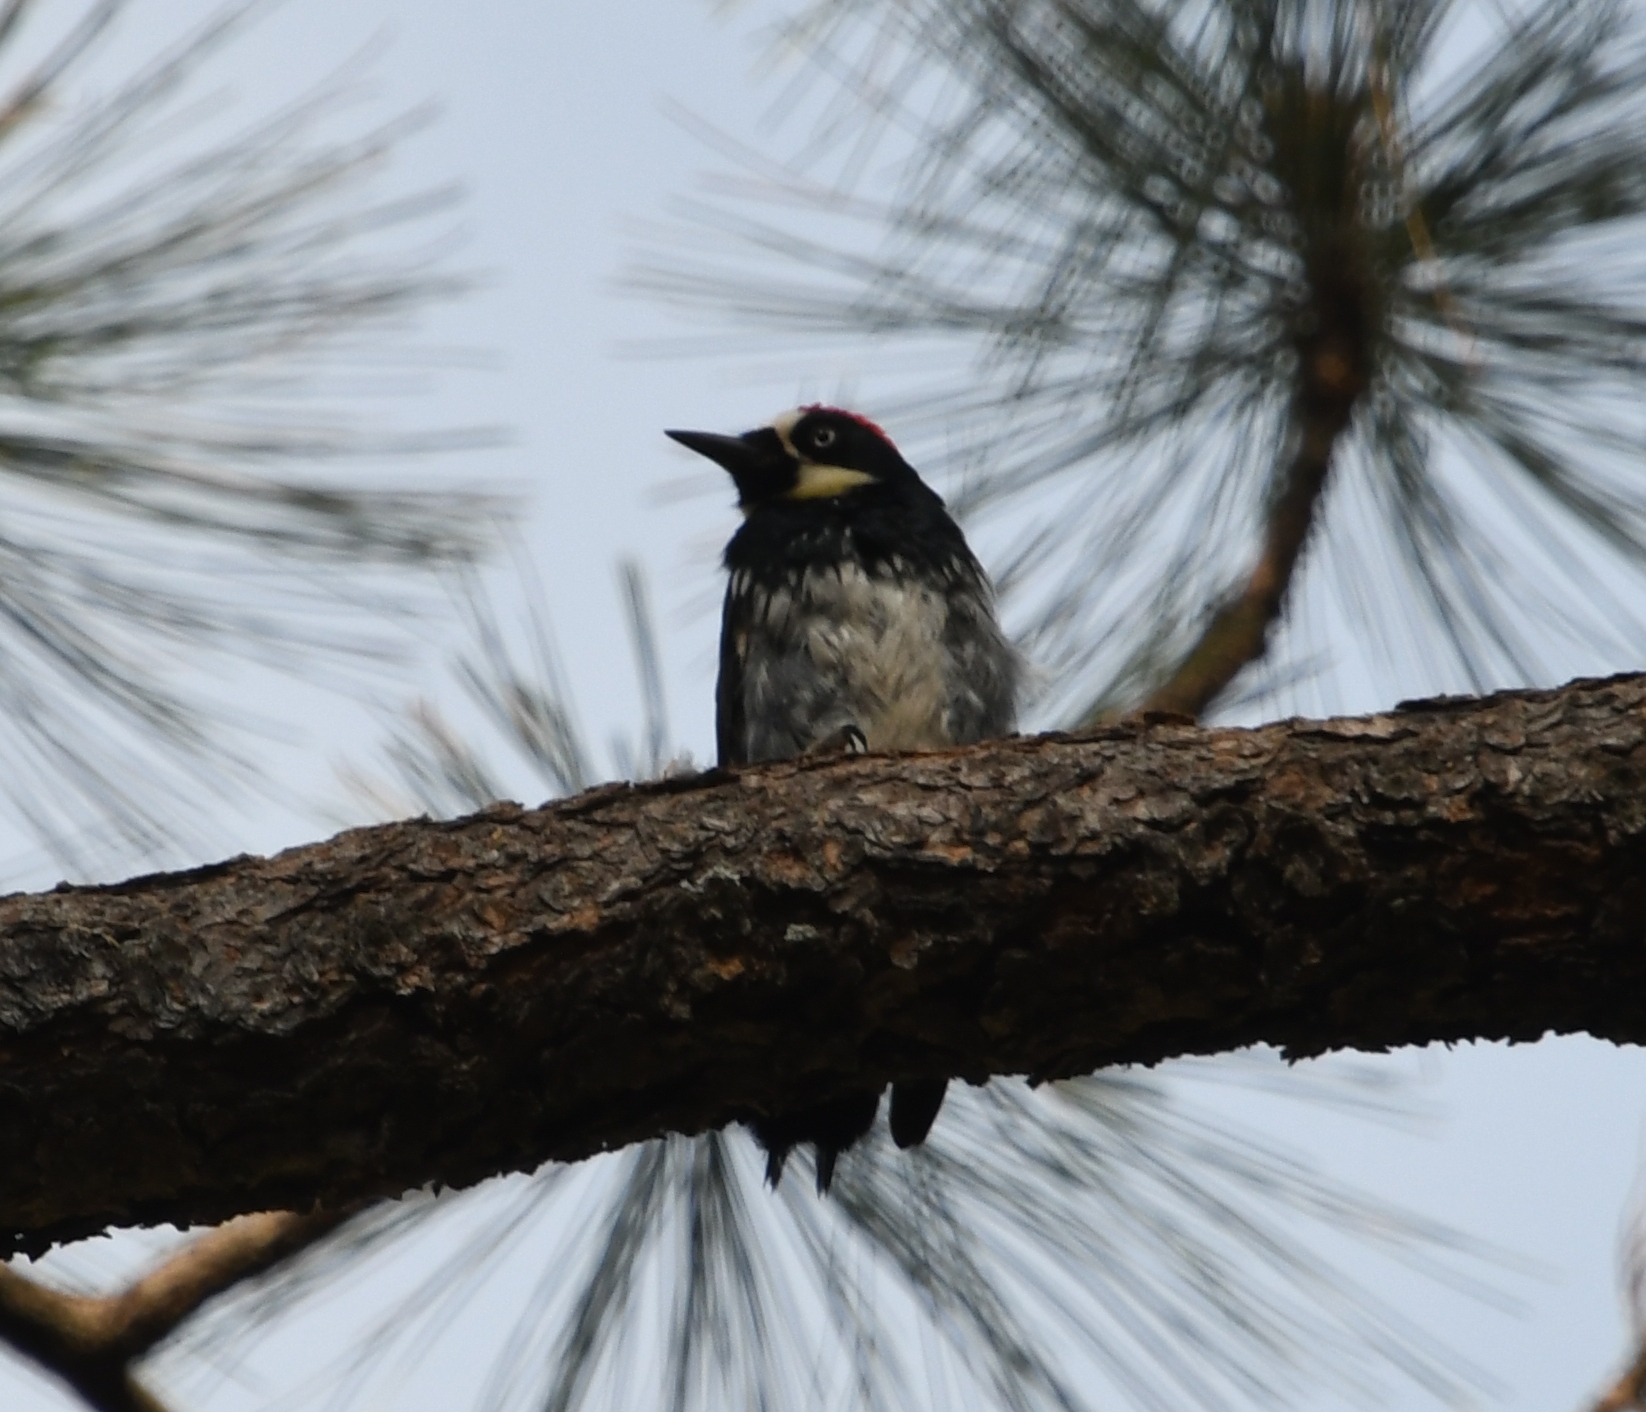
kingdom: Animalia
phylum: Chordata
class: Aves
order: Piciformes
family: Picidae
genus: Melanerpes
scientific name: Melanerpes formicivorus
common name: Acorn woodpecker
